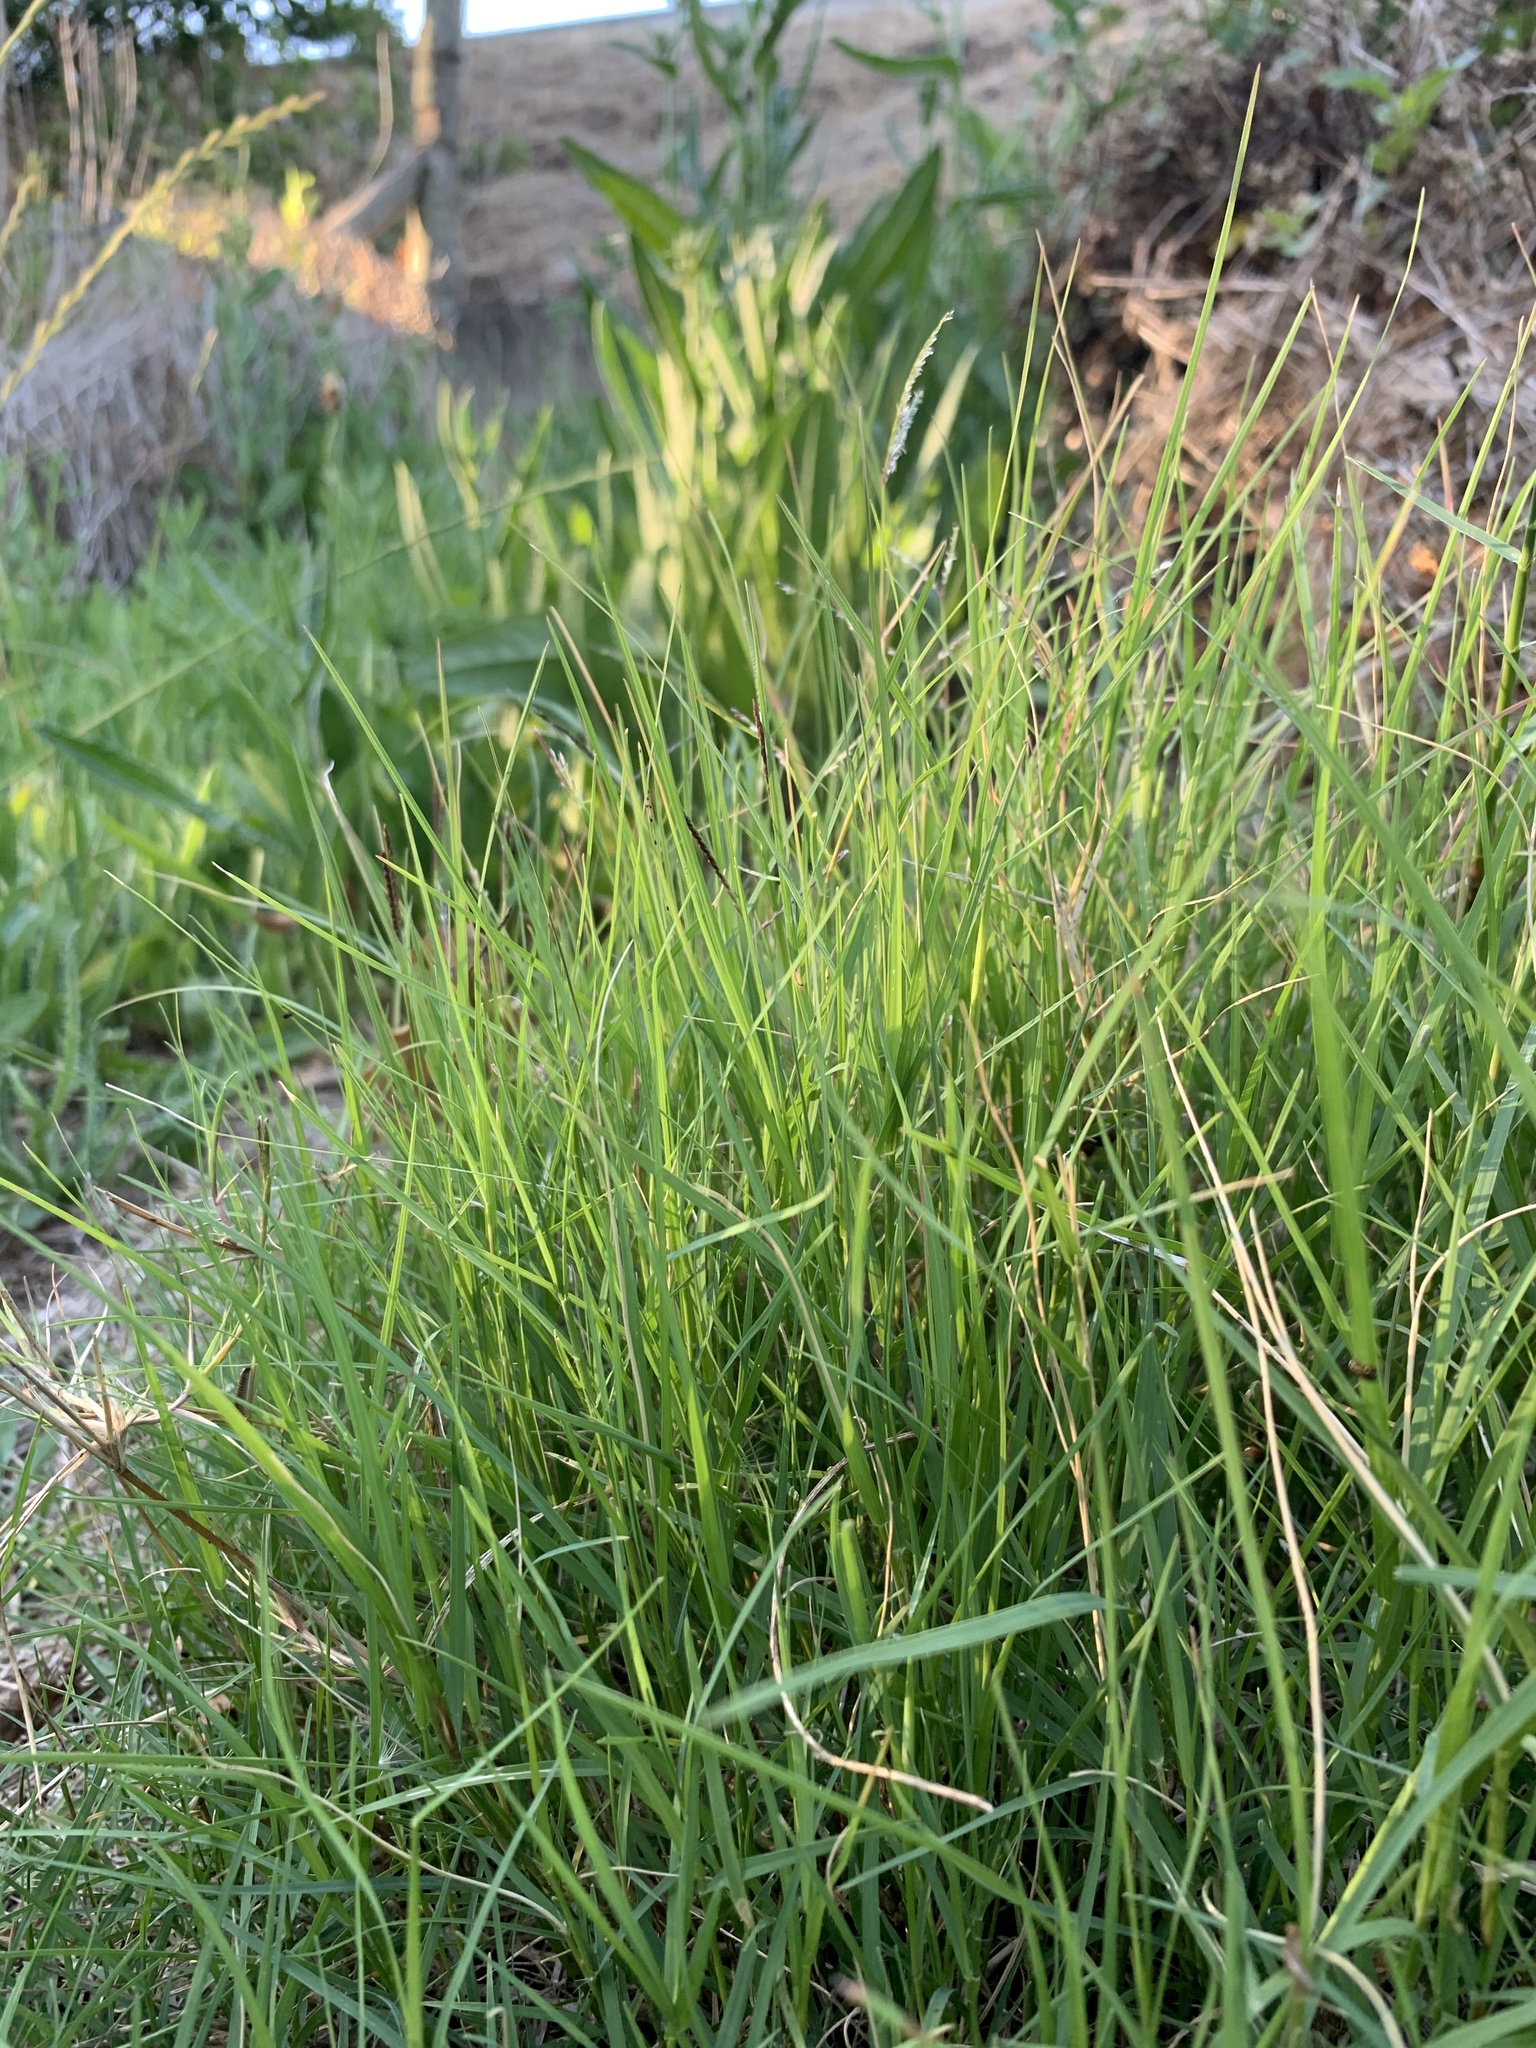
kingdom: Plantae
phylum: Tracheophyta
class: Liliopsida
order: Poales
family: Poaceae
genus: Cenchrus
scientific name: Cenchrus clandestinus
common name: Kikuyugrass
